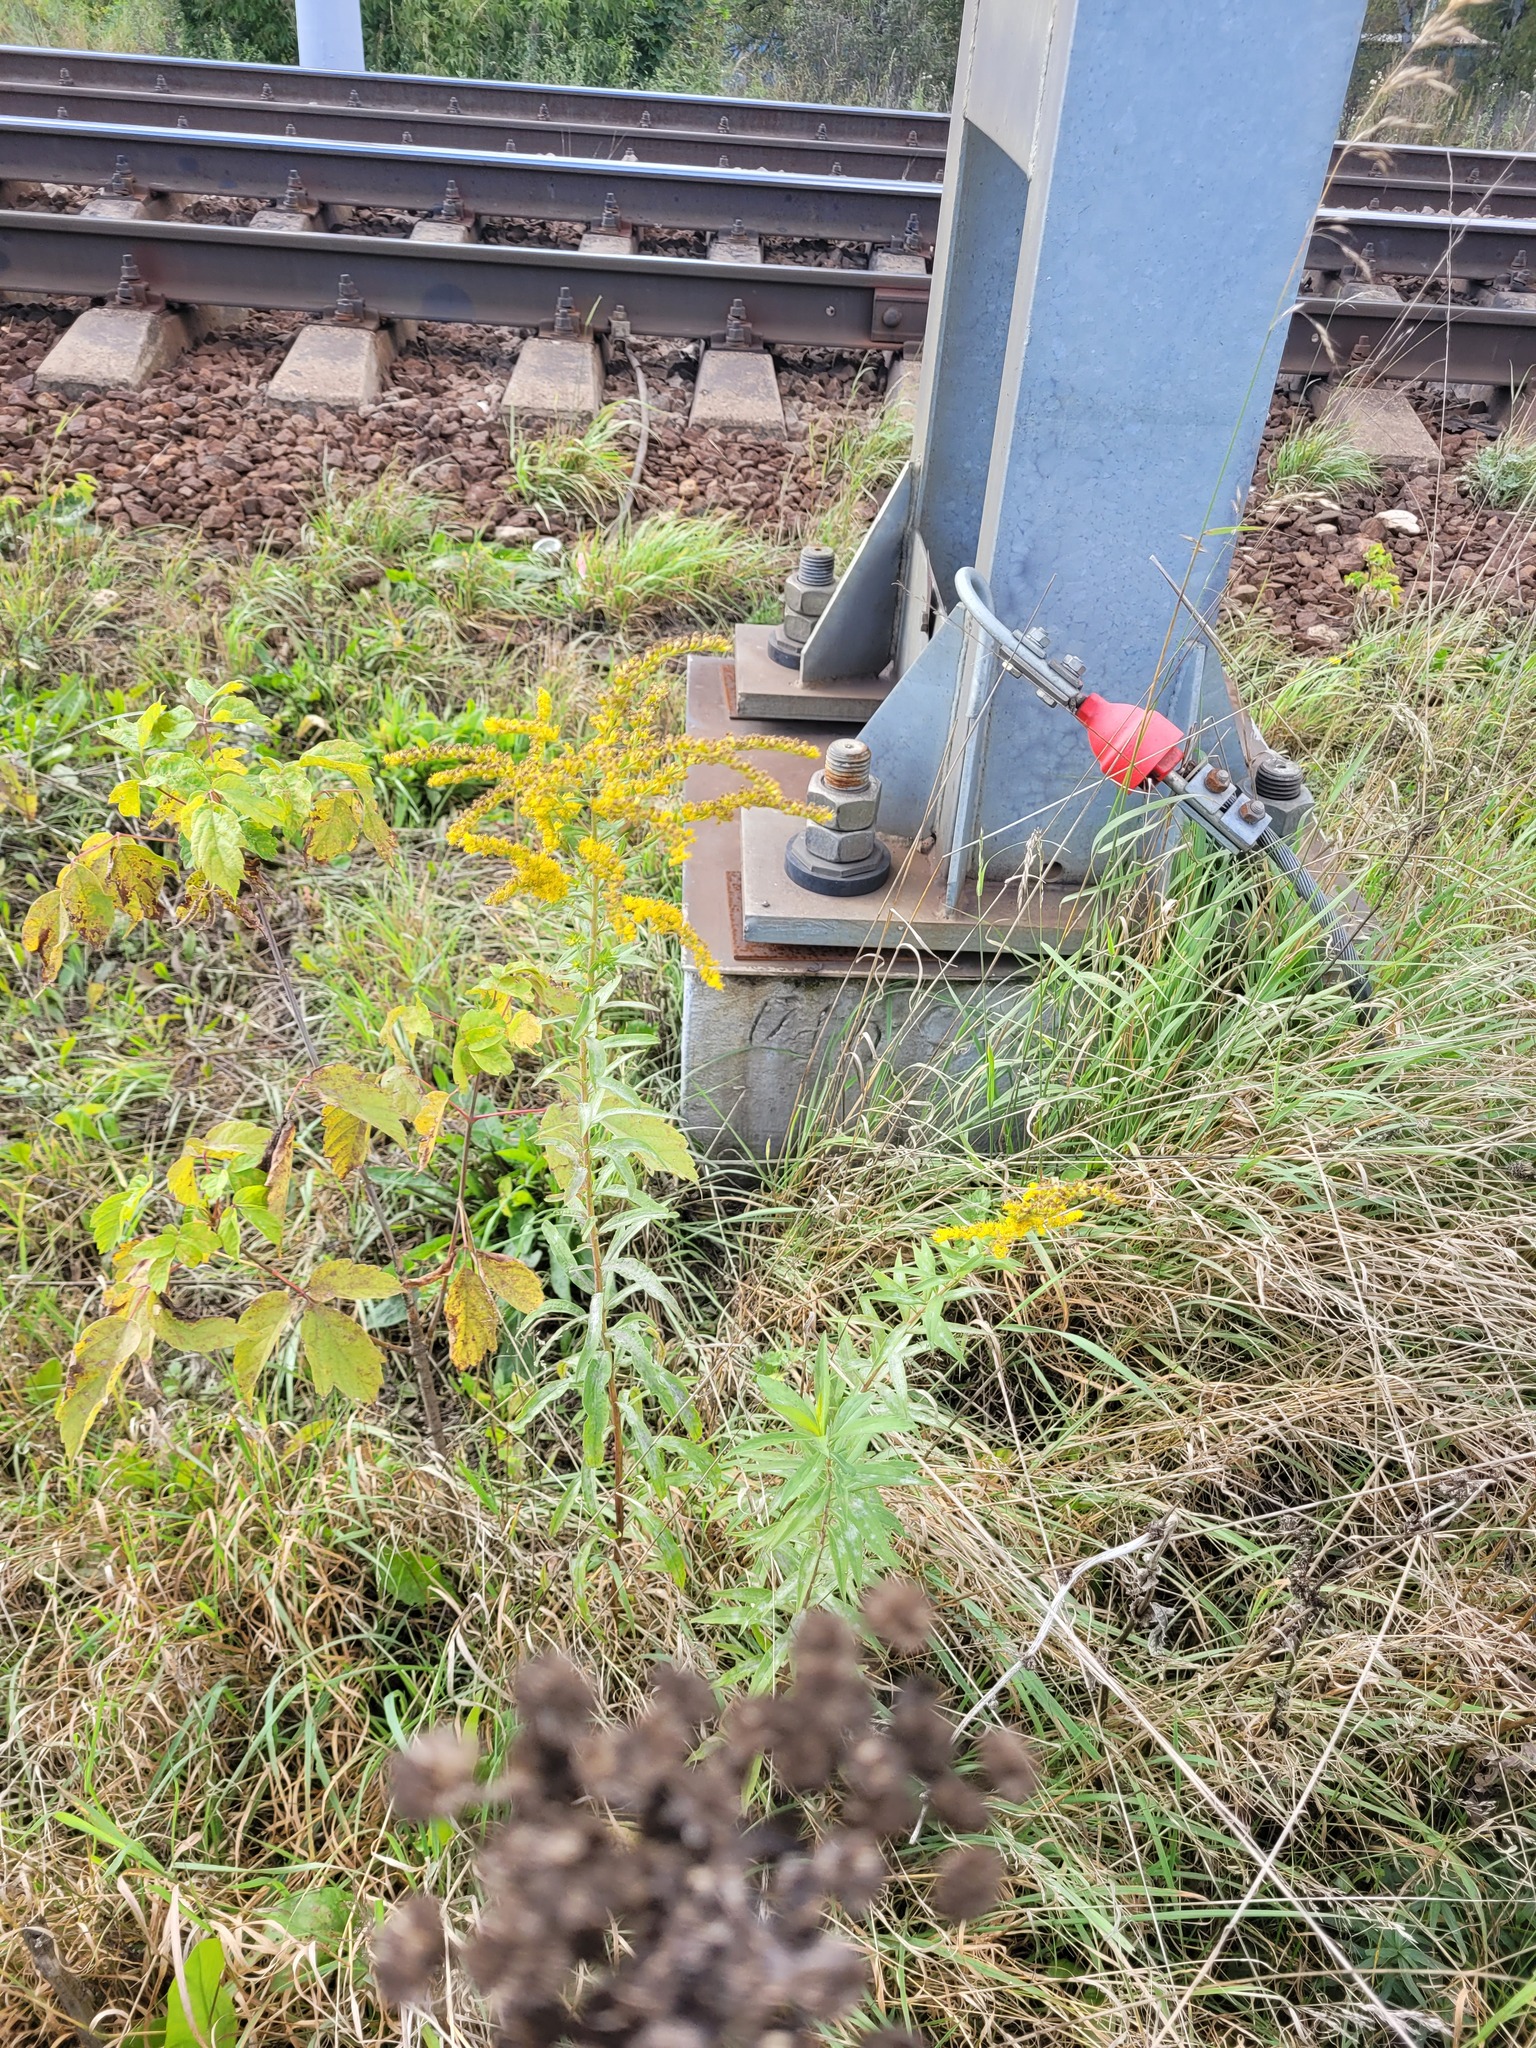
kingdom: Plantae
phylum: Tracheophyta
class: Magnoliopsida
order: Asterales
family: Asteraceae
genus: Solidago
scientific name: Solidago canadensis
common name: Canada goldenrod
